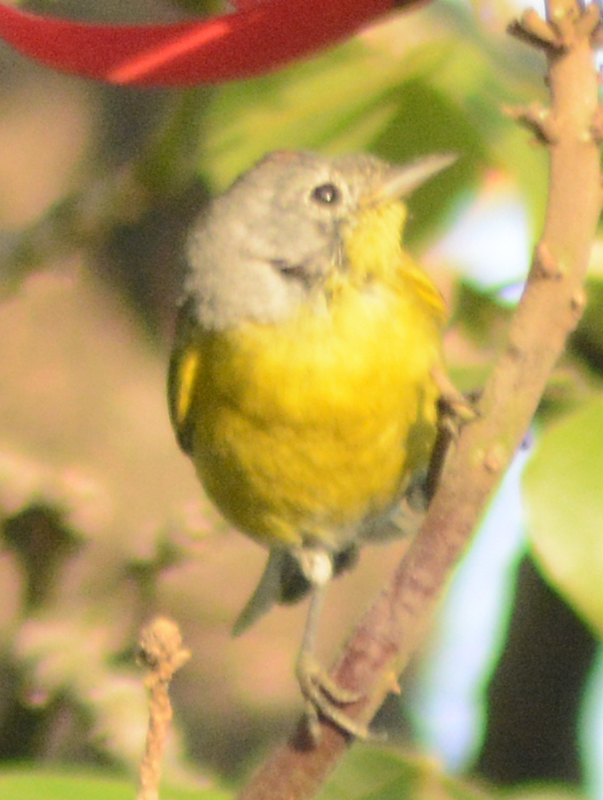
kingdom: Animalia
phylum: Chordata
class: Aves
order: Passeriformes
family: Parulidae
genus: Leiothlypis
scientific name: Leiothlypis ruficapilla
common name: Nashville warbler
